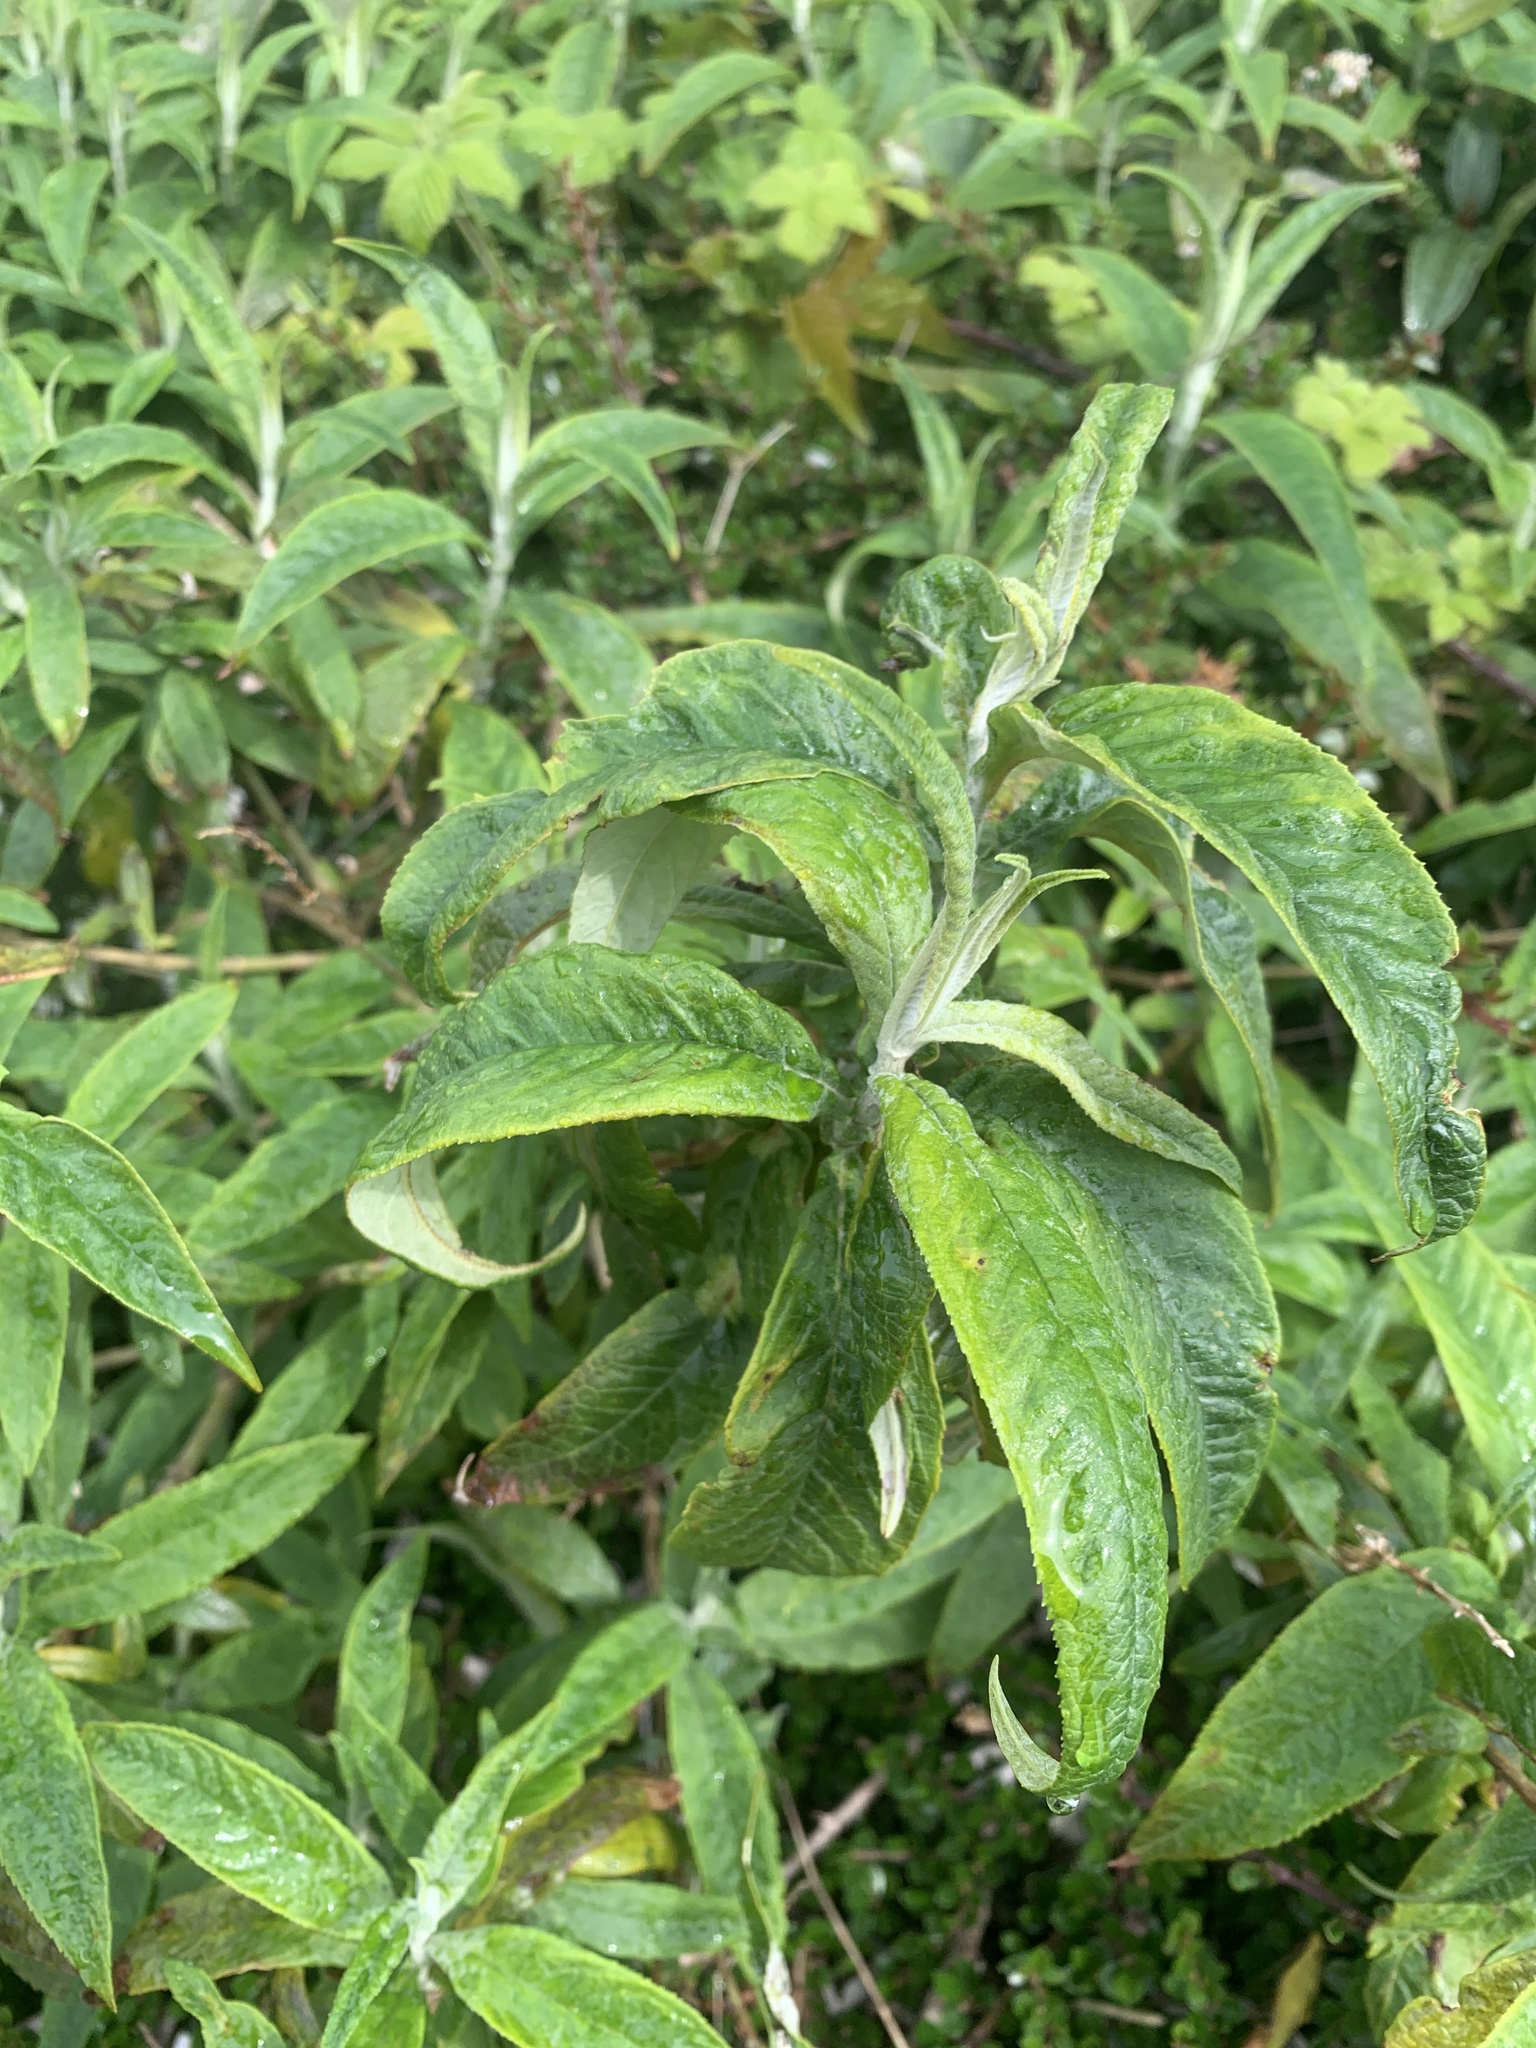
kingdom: Plantae
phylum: Tracheophyta
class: Magnoliopsida
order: Lamiales
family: Scrophulariaceae
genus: Buddleja
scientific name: Buddleja davidii
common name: Butterfly-bush
